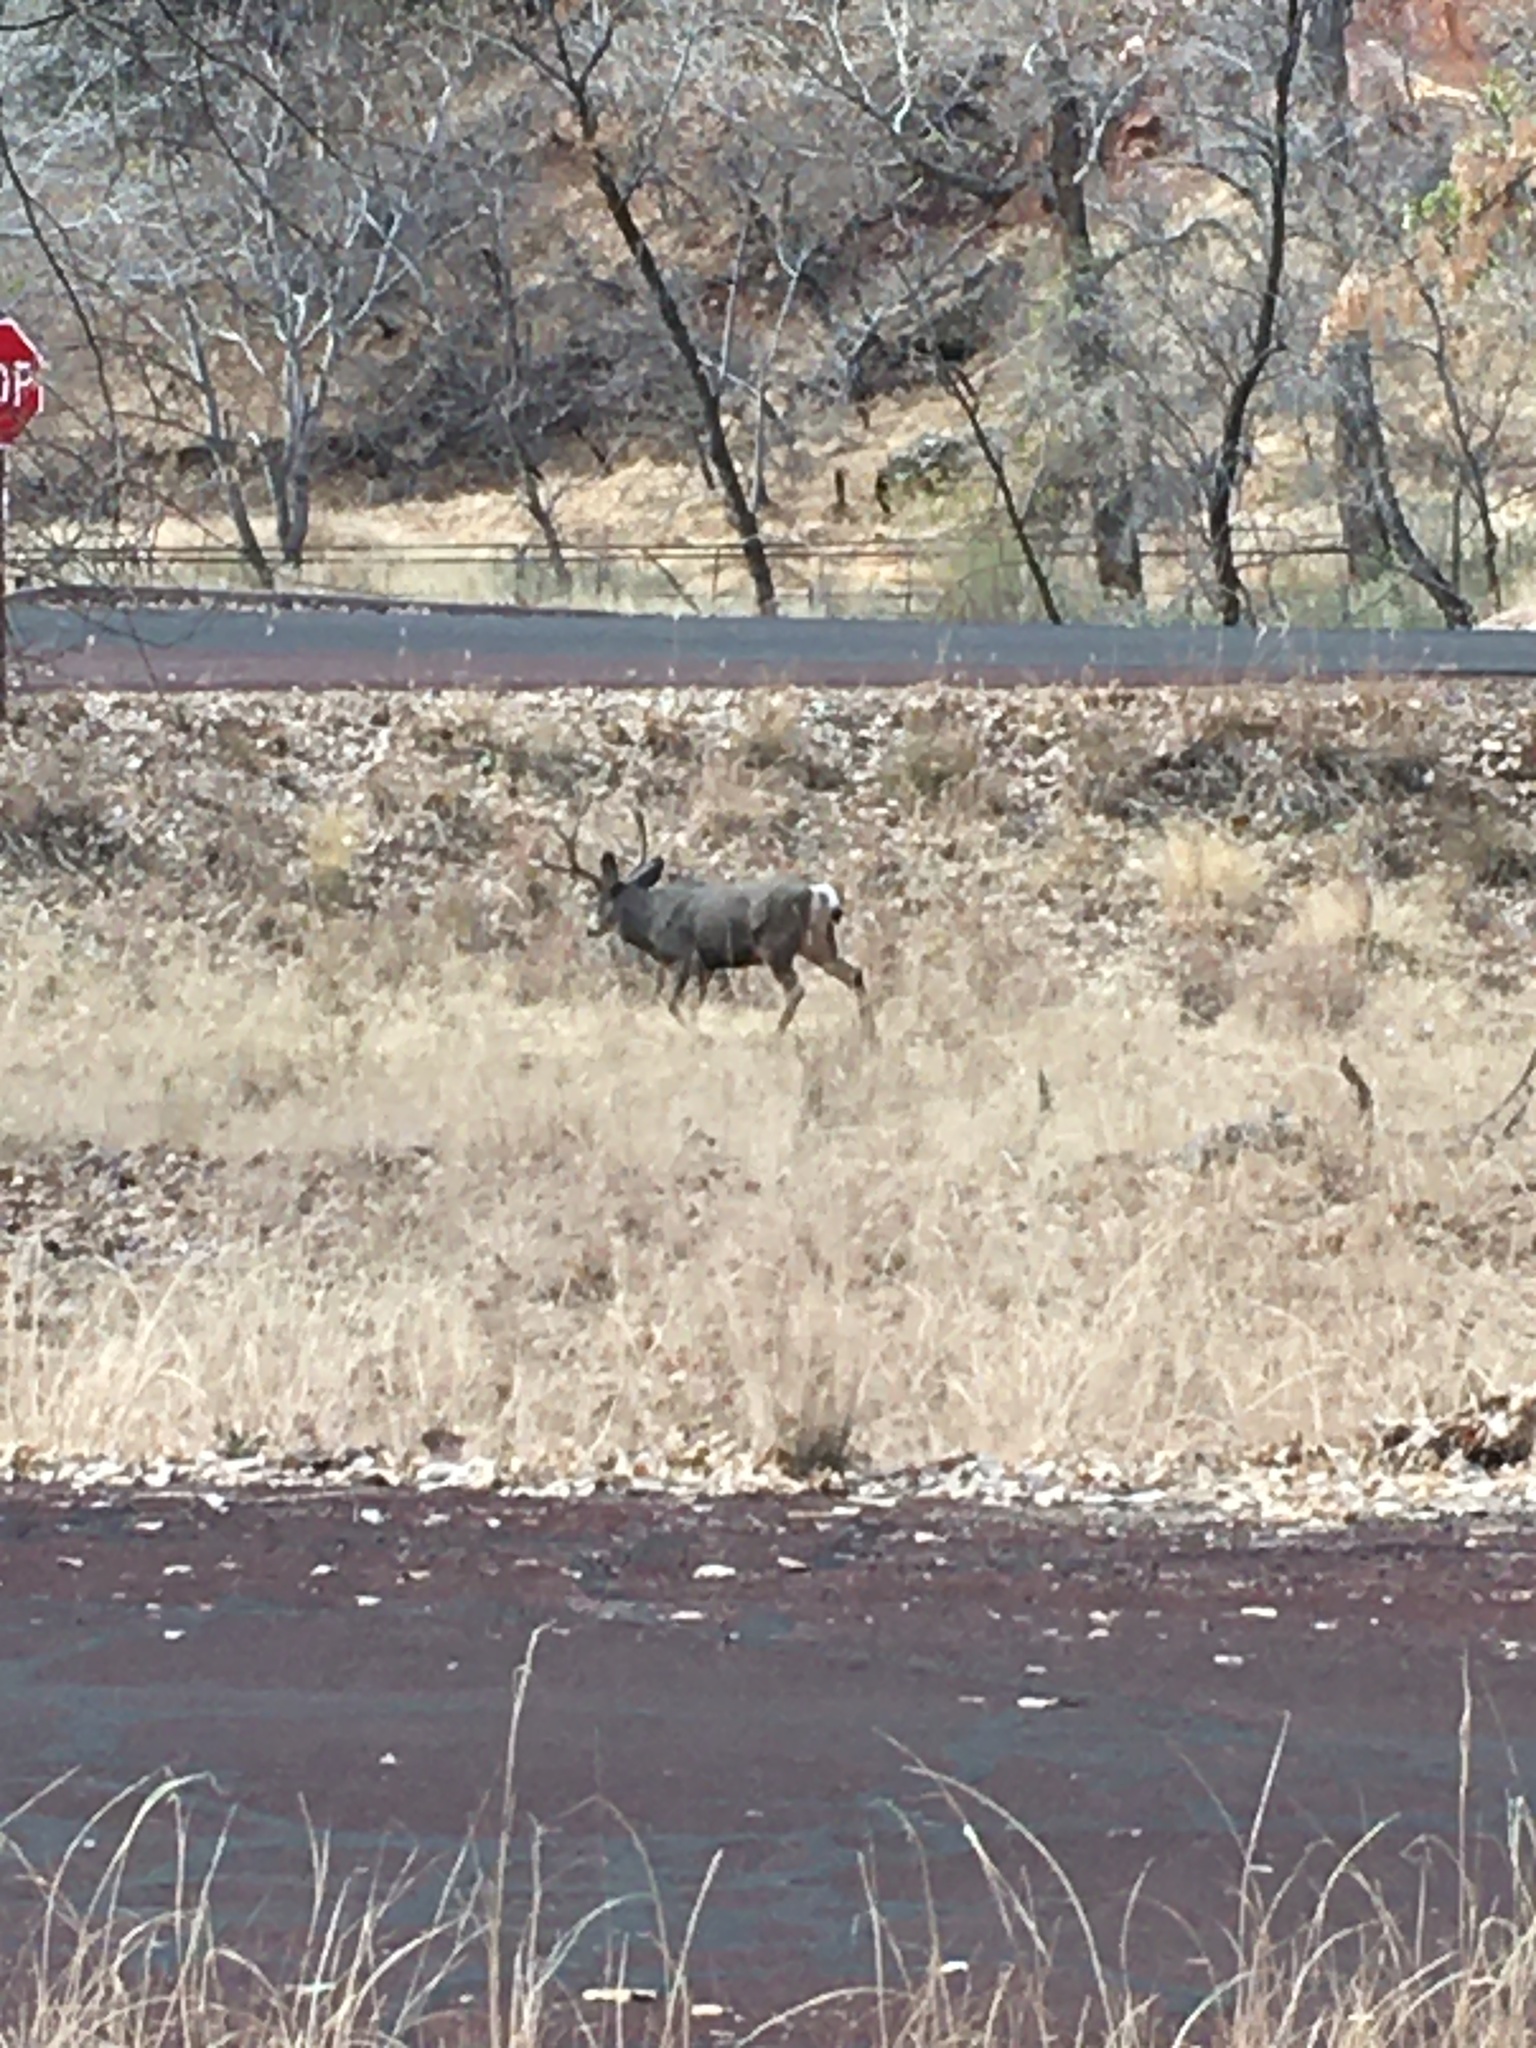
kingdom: Animalia
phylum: Chordata
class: Mammalia
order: Artiodactyla
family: Cervidae
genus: Odocoileus
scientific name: Odocoileus hemionus
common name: Mule deer
